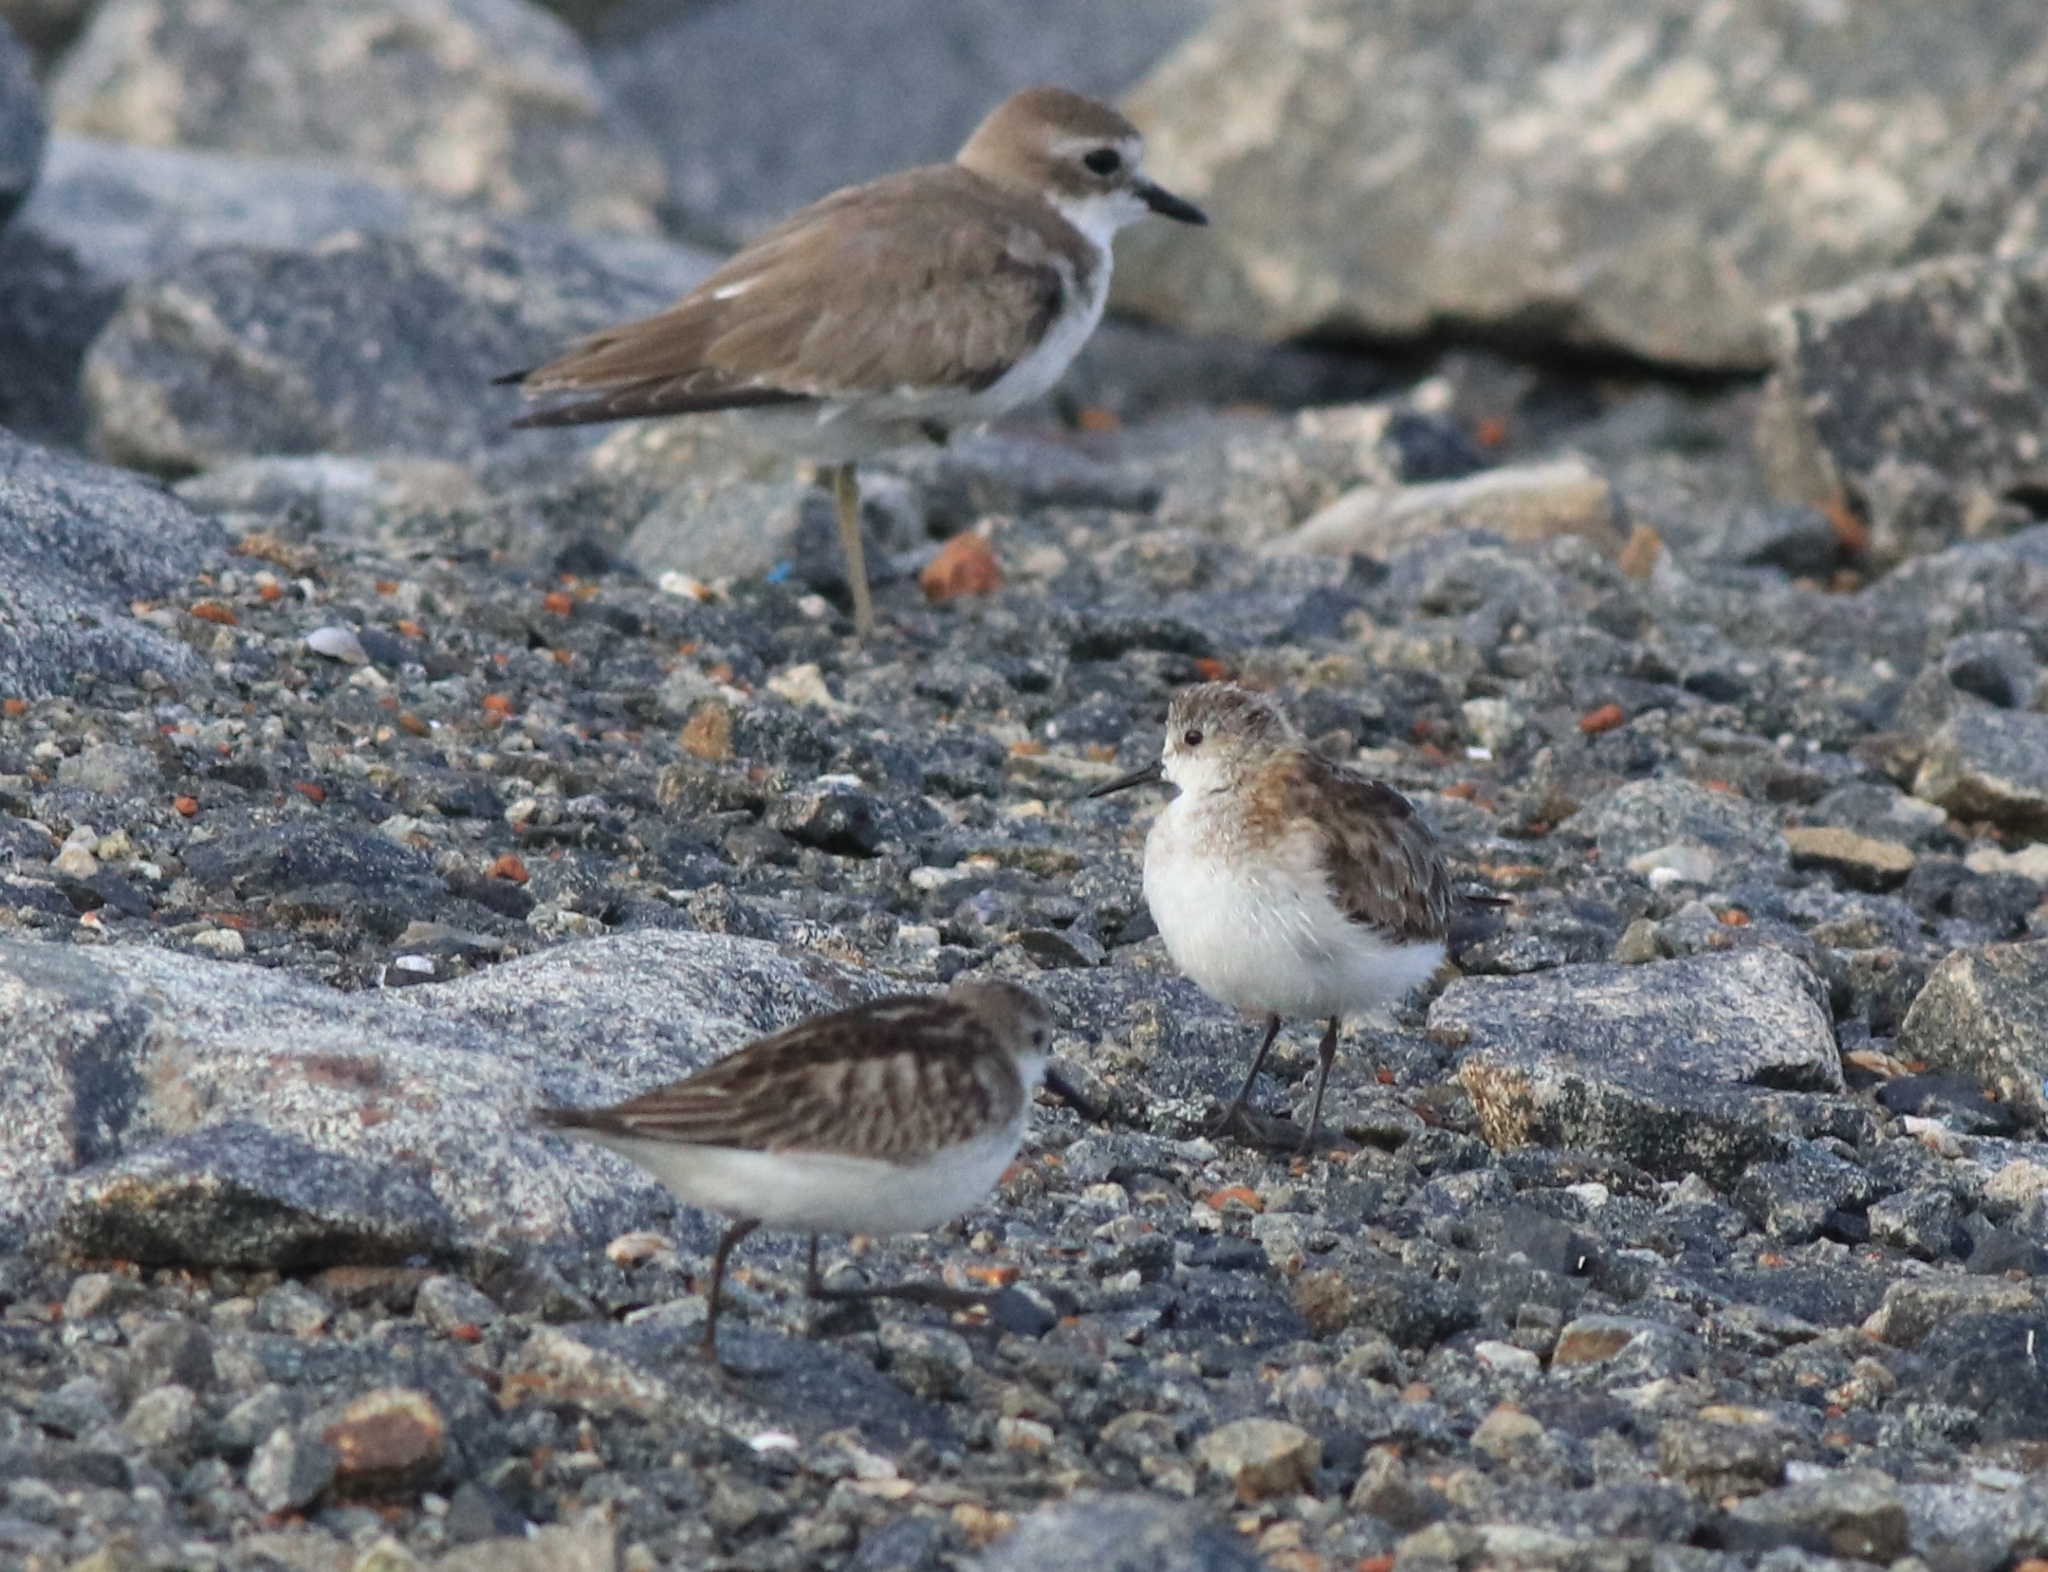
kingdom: Animalia
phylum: Chordata
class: Aves
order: Charadriiformes
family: Scolopacidae
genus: Calidris
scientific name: Calidris minuta
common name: Little stint
